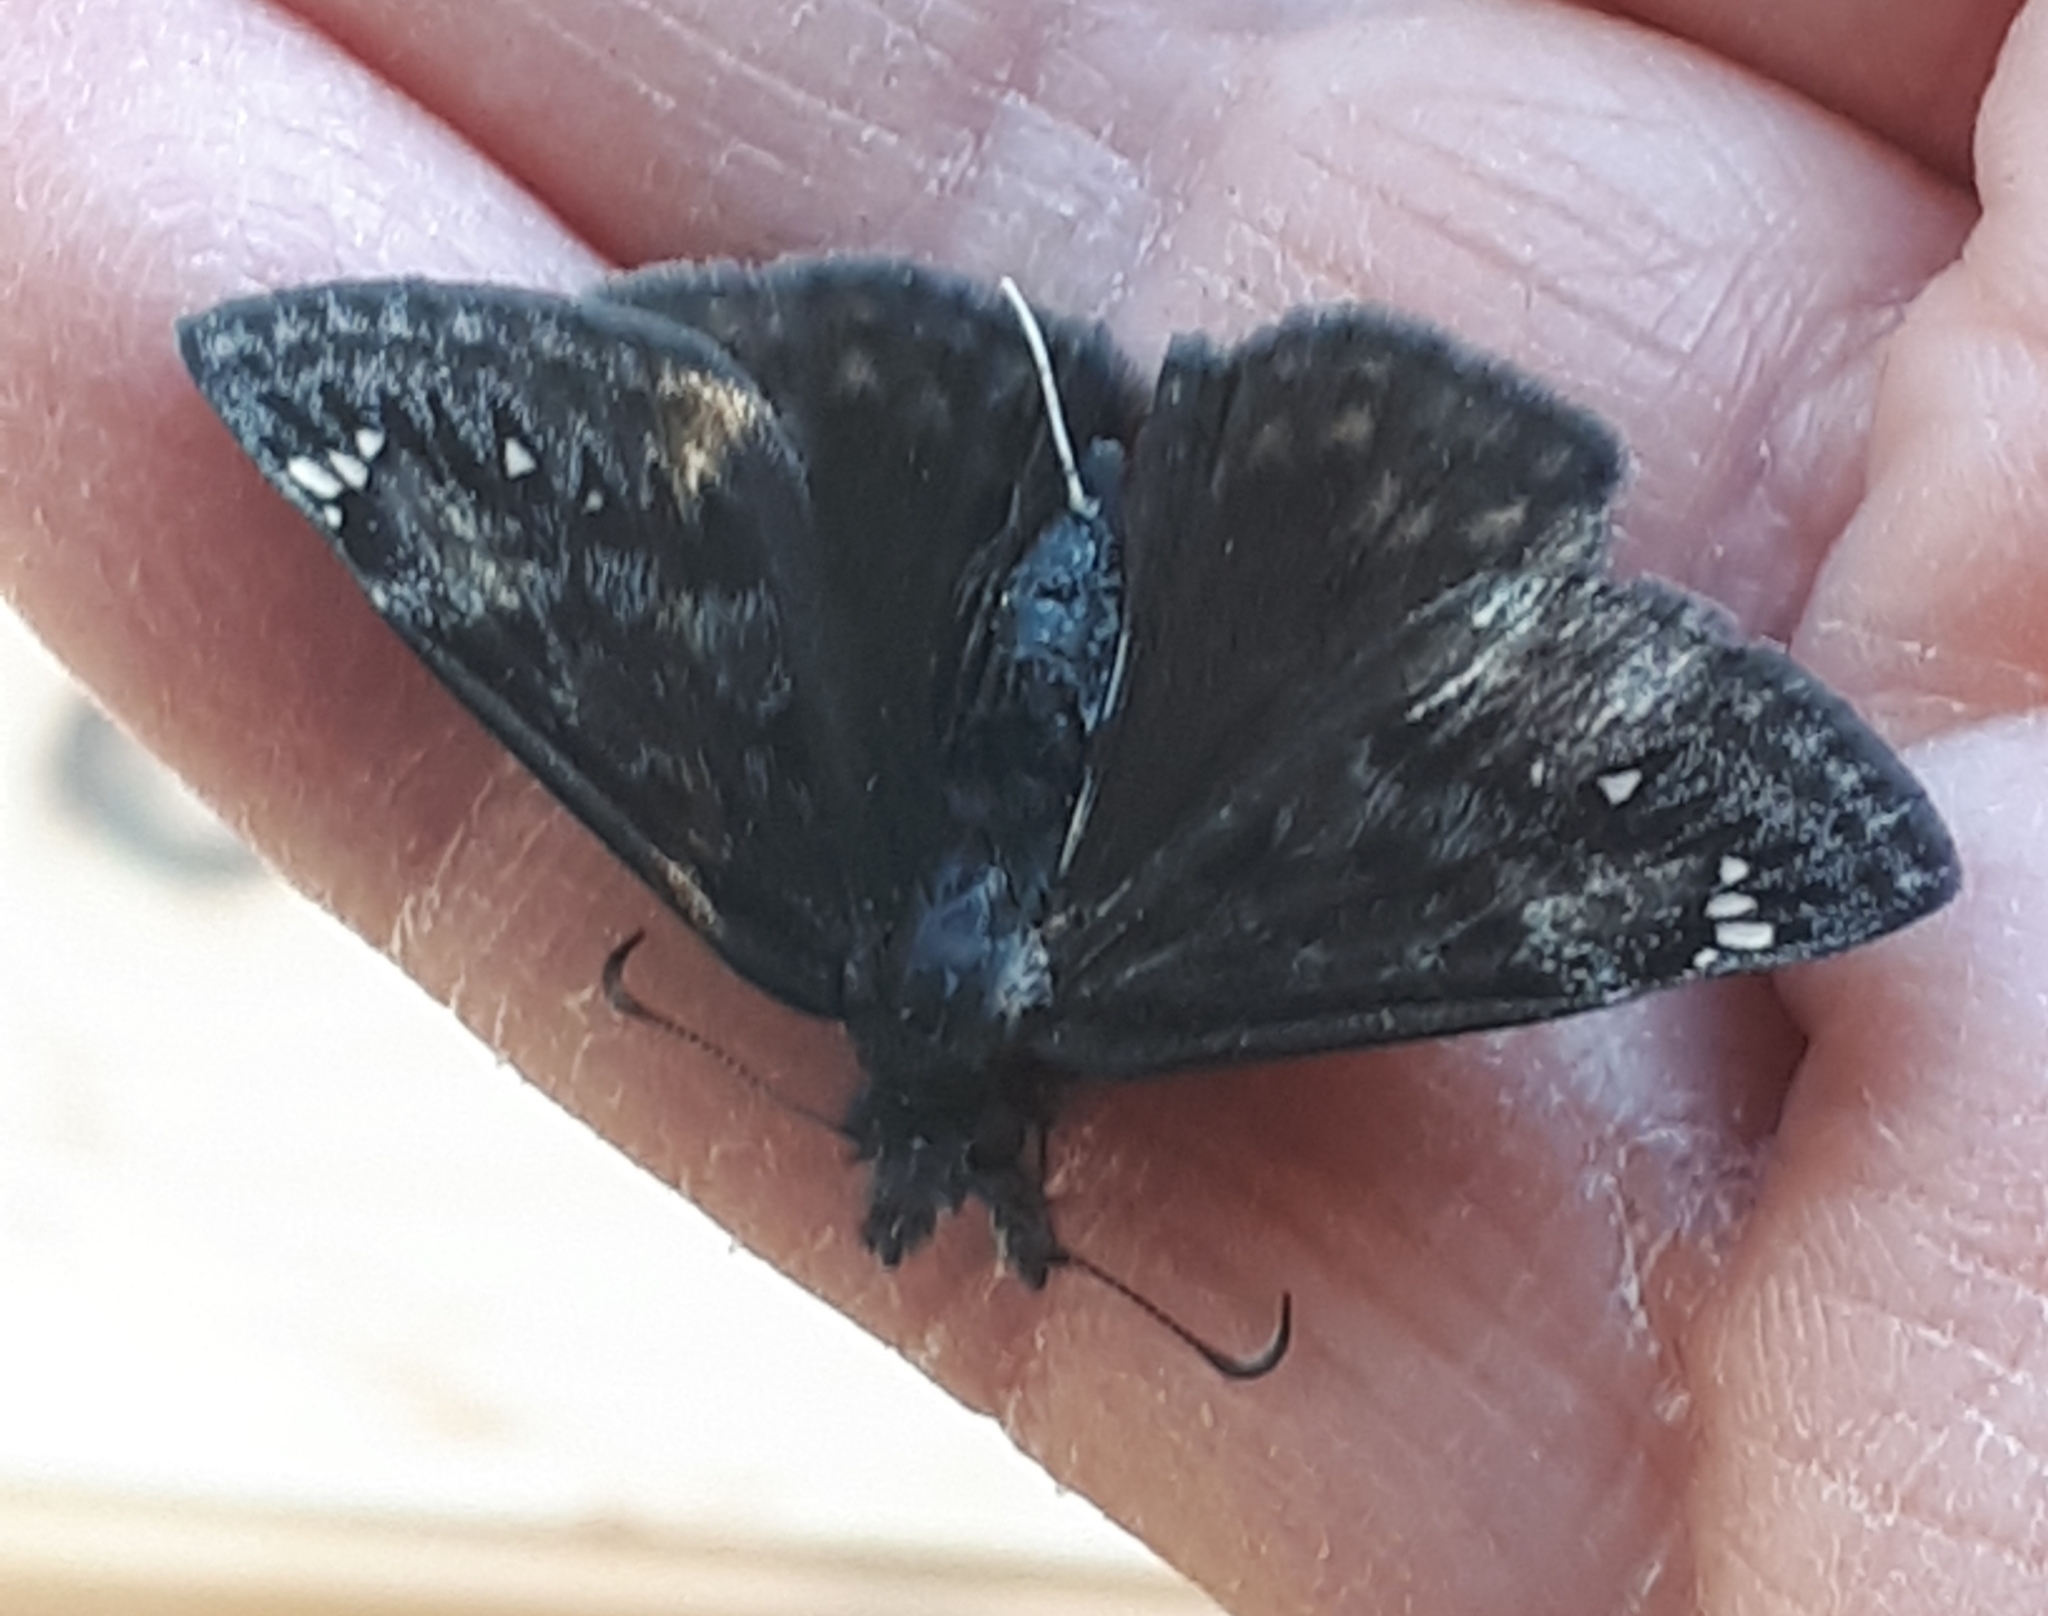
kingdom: Animalia
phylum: Arthropoda
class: Insecta
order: Lepidoptera
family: Hesperiidae
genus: Erynnis
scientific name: Erynnis juvenalis
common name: Juvenal's duskywing
